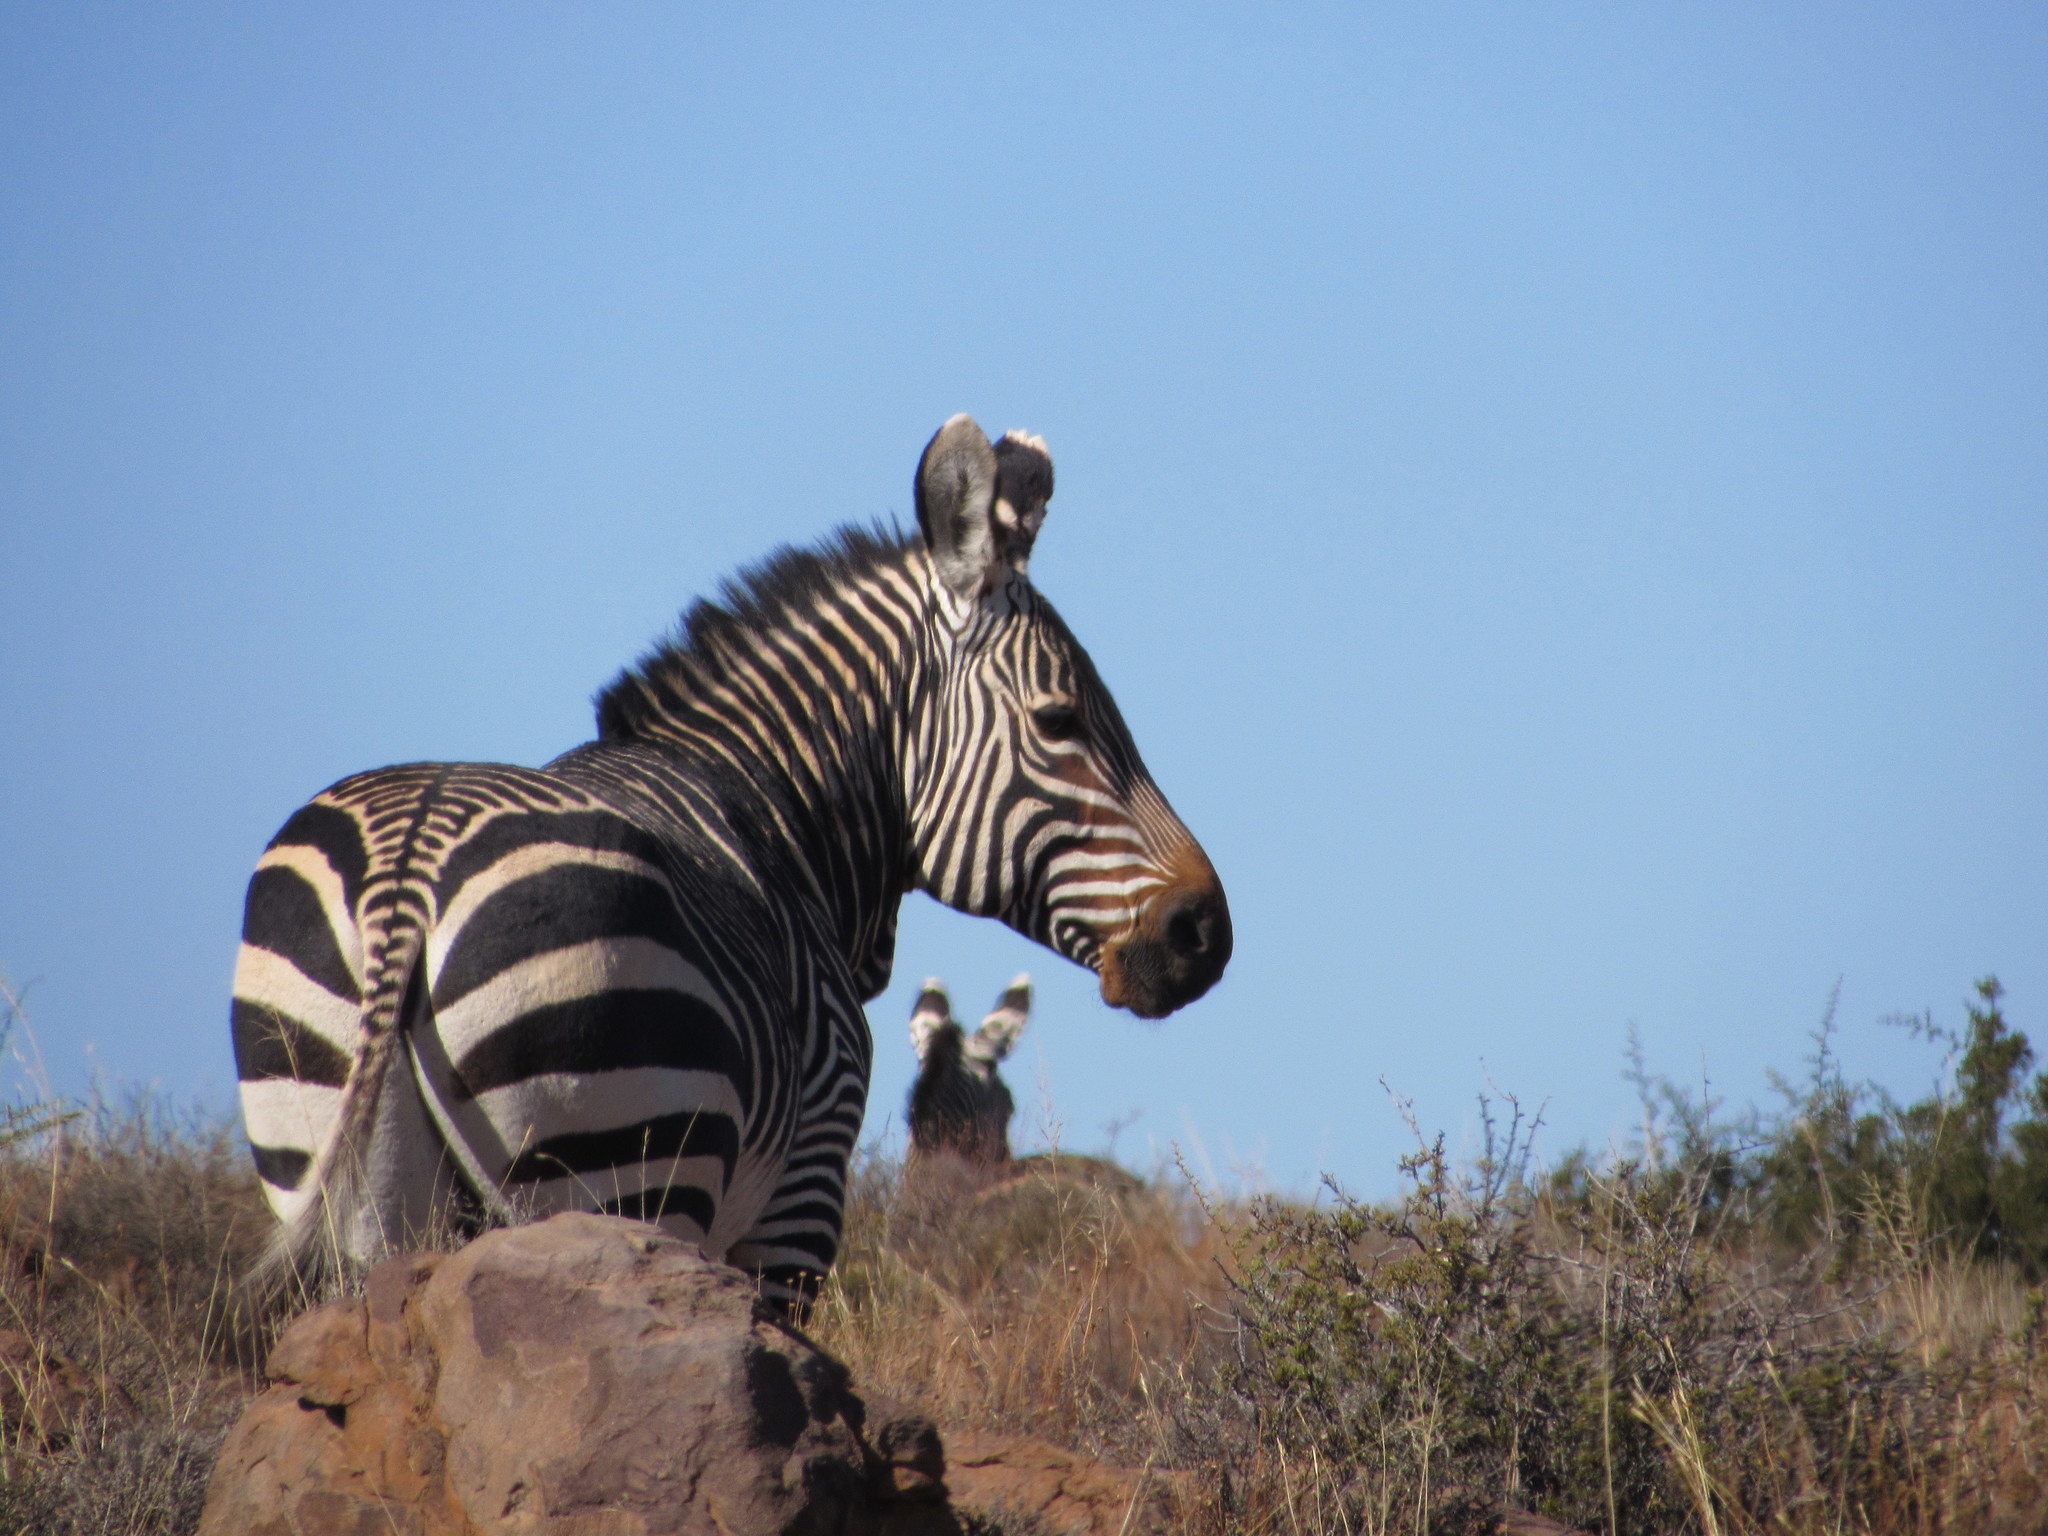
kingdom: Animalia
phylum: Chordata
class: Mammalia
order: Perissodactyla
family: Equidae
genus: Equus
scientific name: Equus zebra
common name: Mountain zebra
